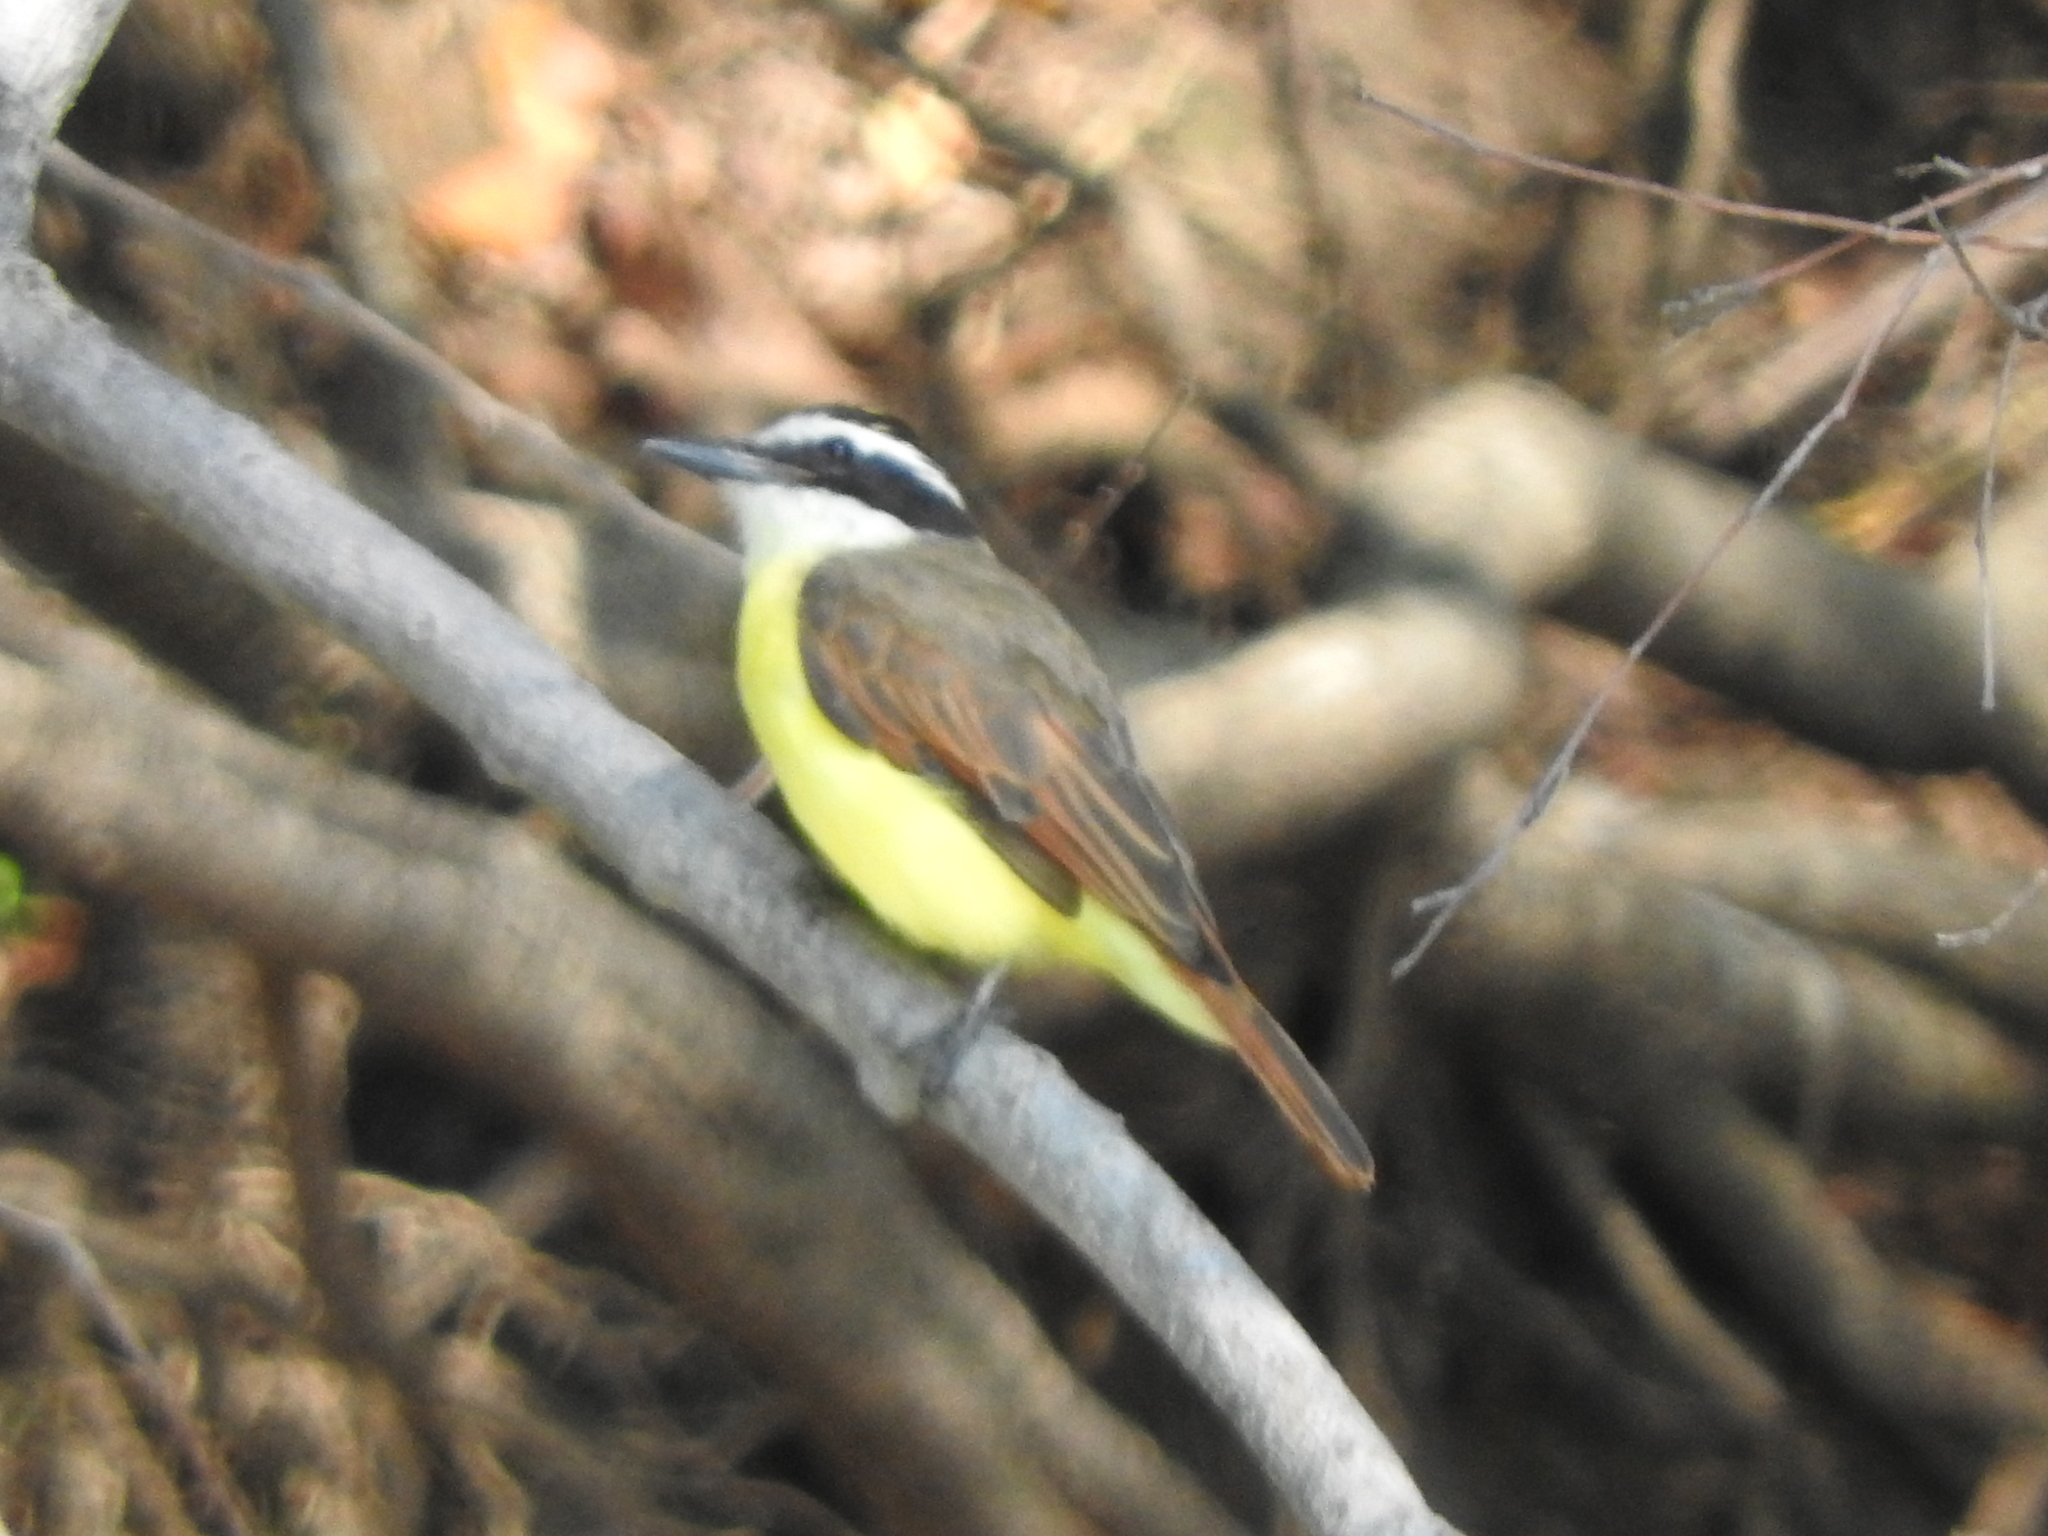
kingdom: Animalia
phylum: Chordata
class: Aves
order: Passeriformes
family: Tyrannidae
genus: Pitangus
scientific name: Pitangus sulphuratus
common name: Great kiskadee
